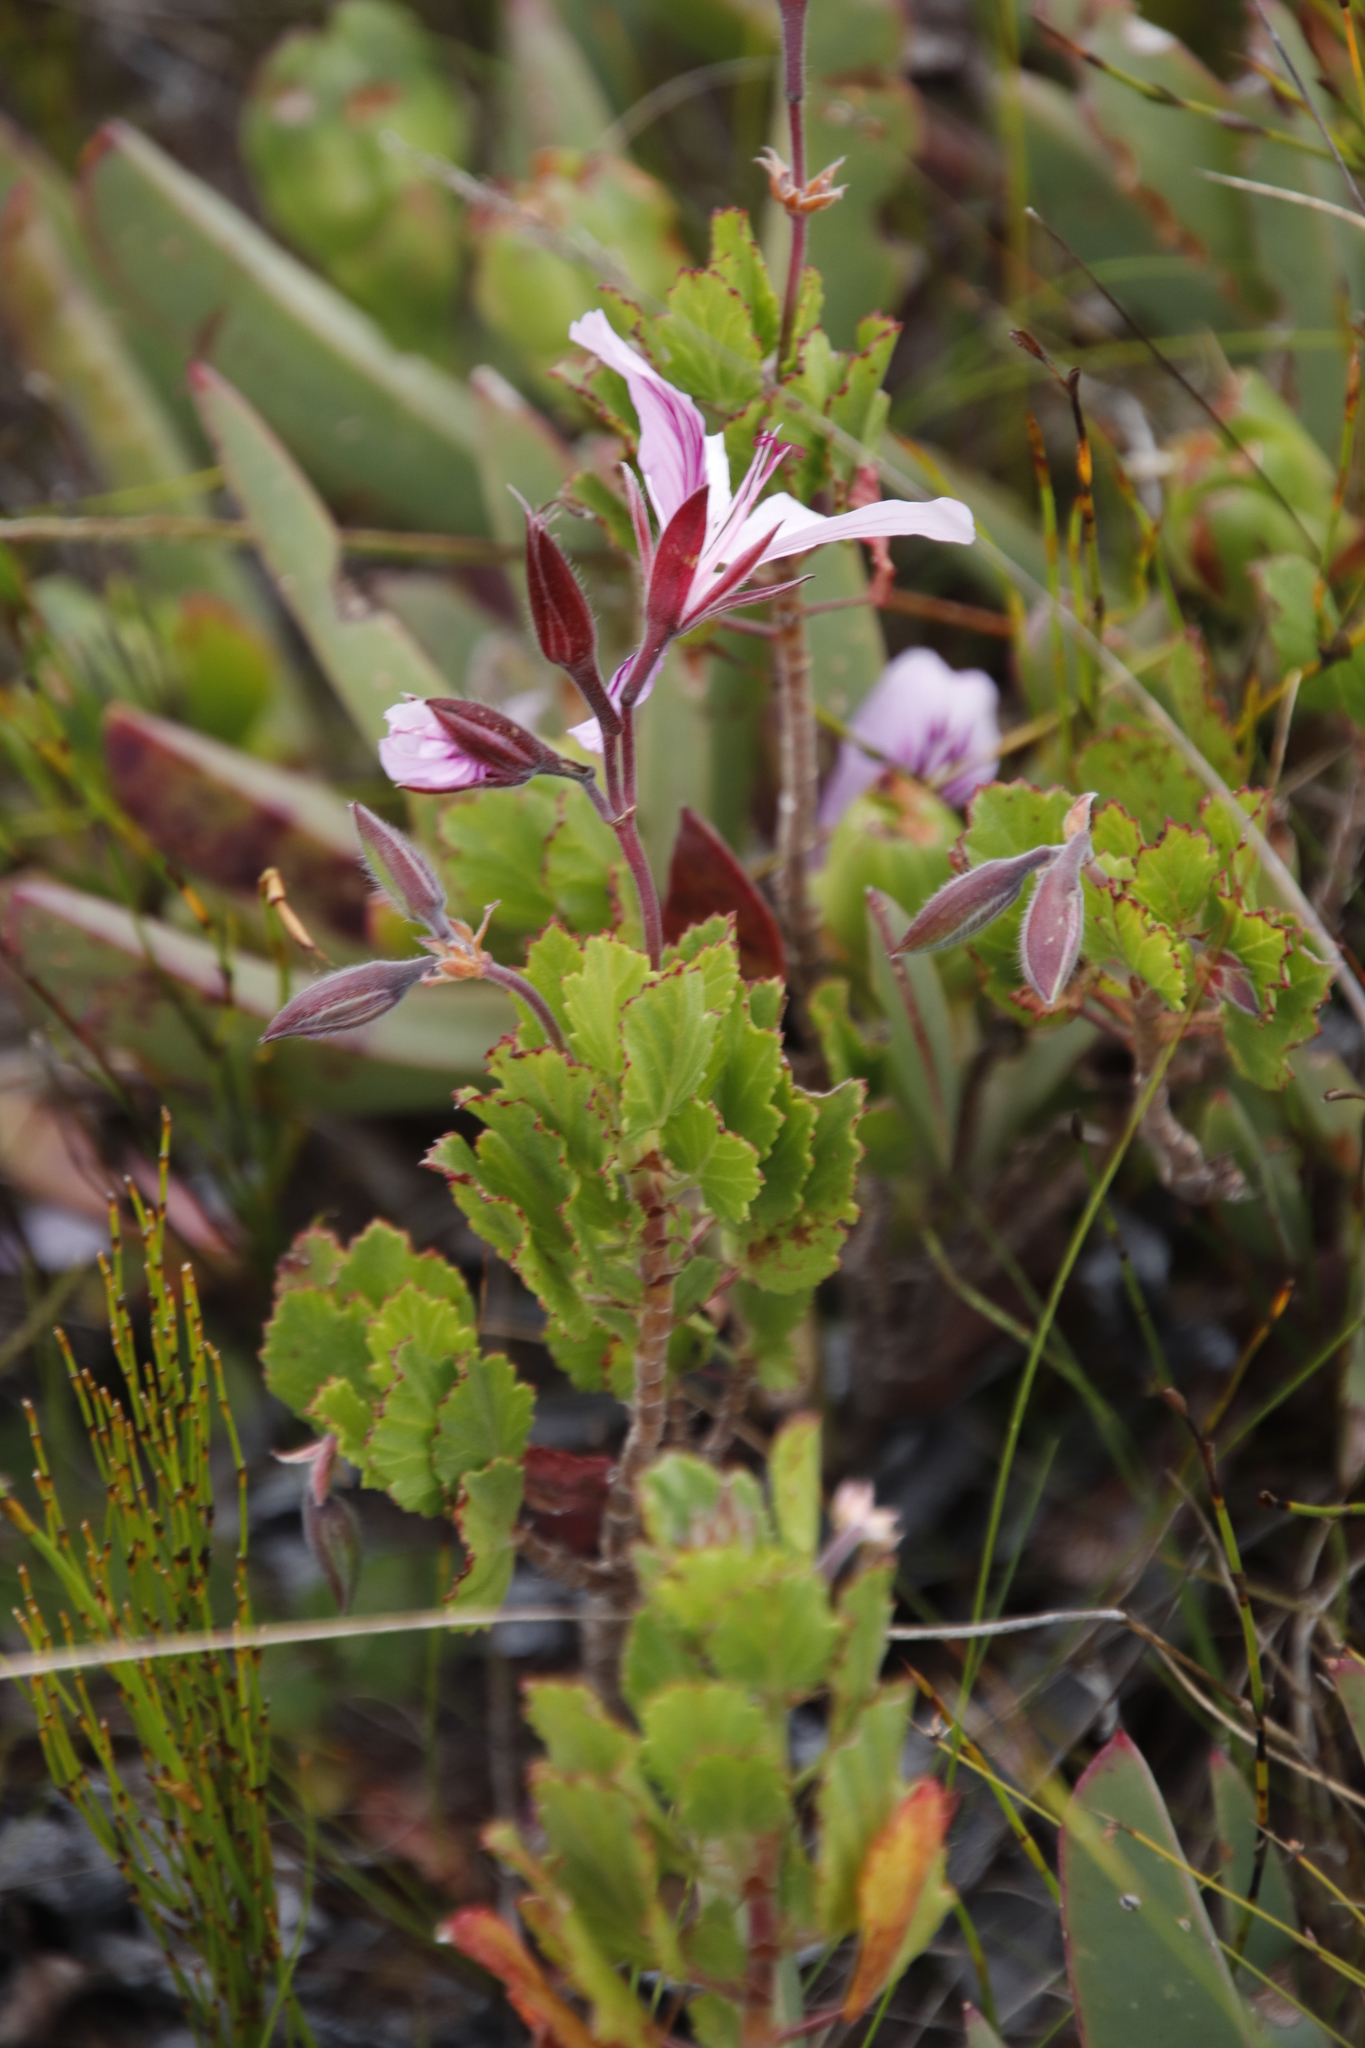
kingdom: Plantae
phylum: Tracheophyta
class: Magnoliopsida
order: Geraniales
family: Geraniaceae
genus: Pelargonium
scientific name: Pelargonium betulinum
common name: Birch-leaf pelargonium
